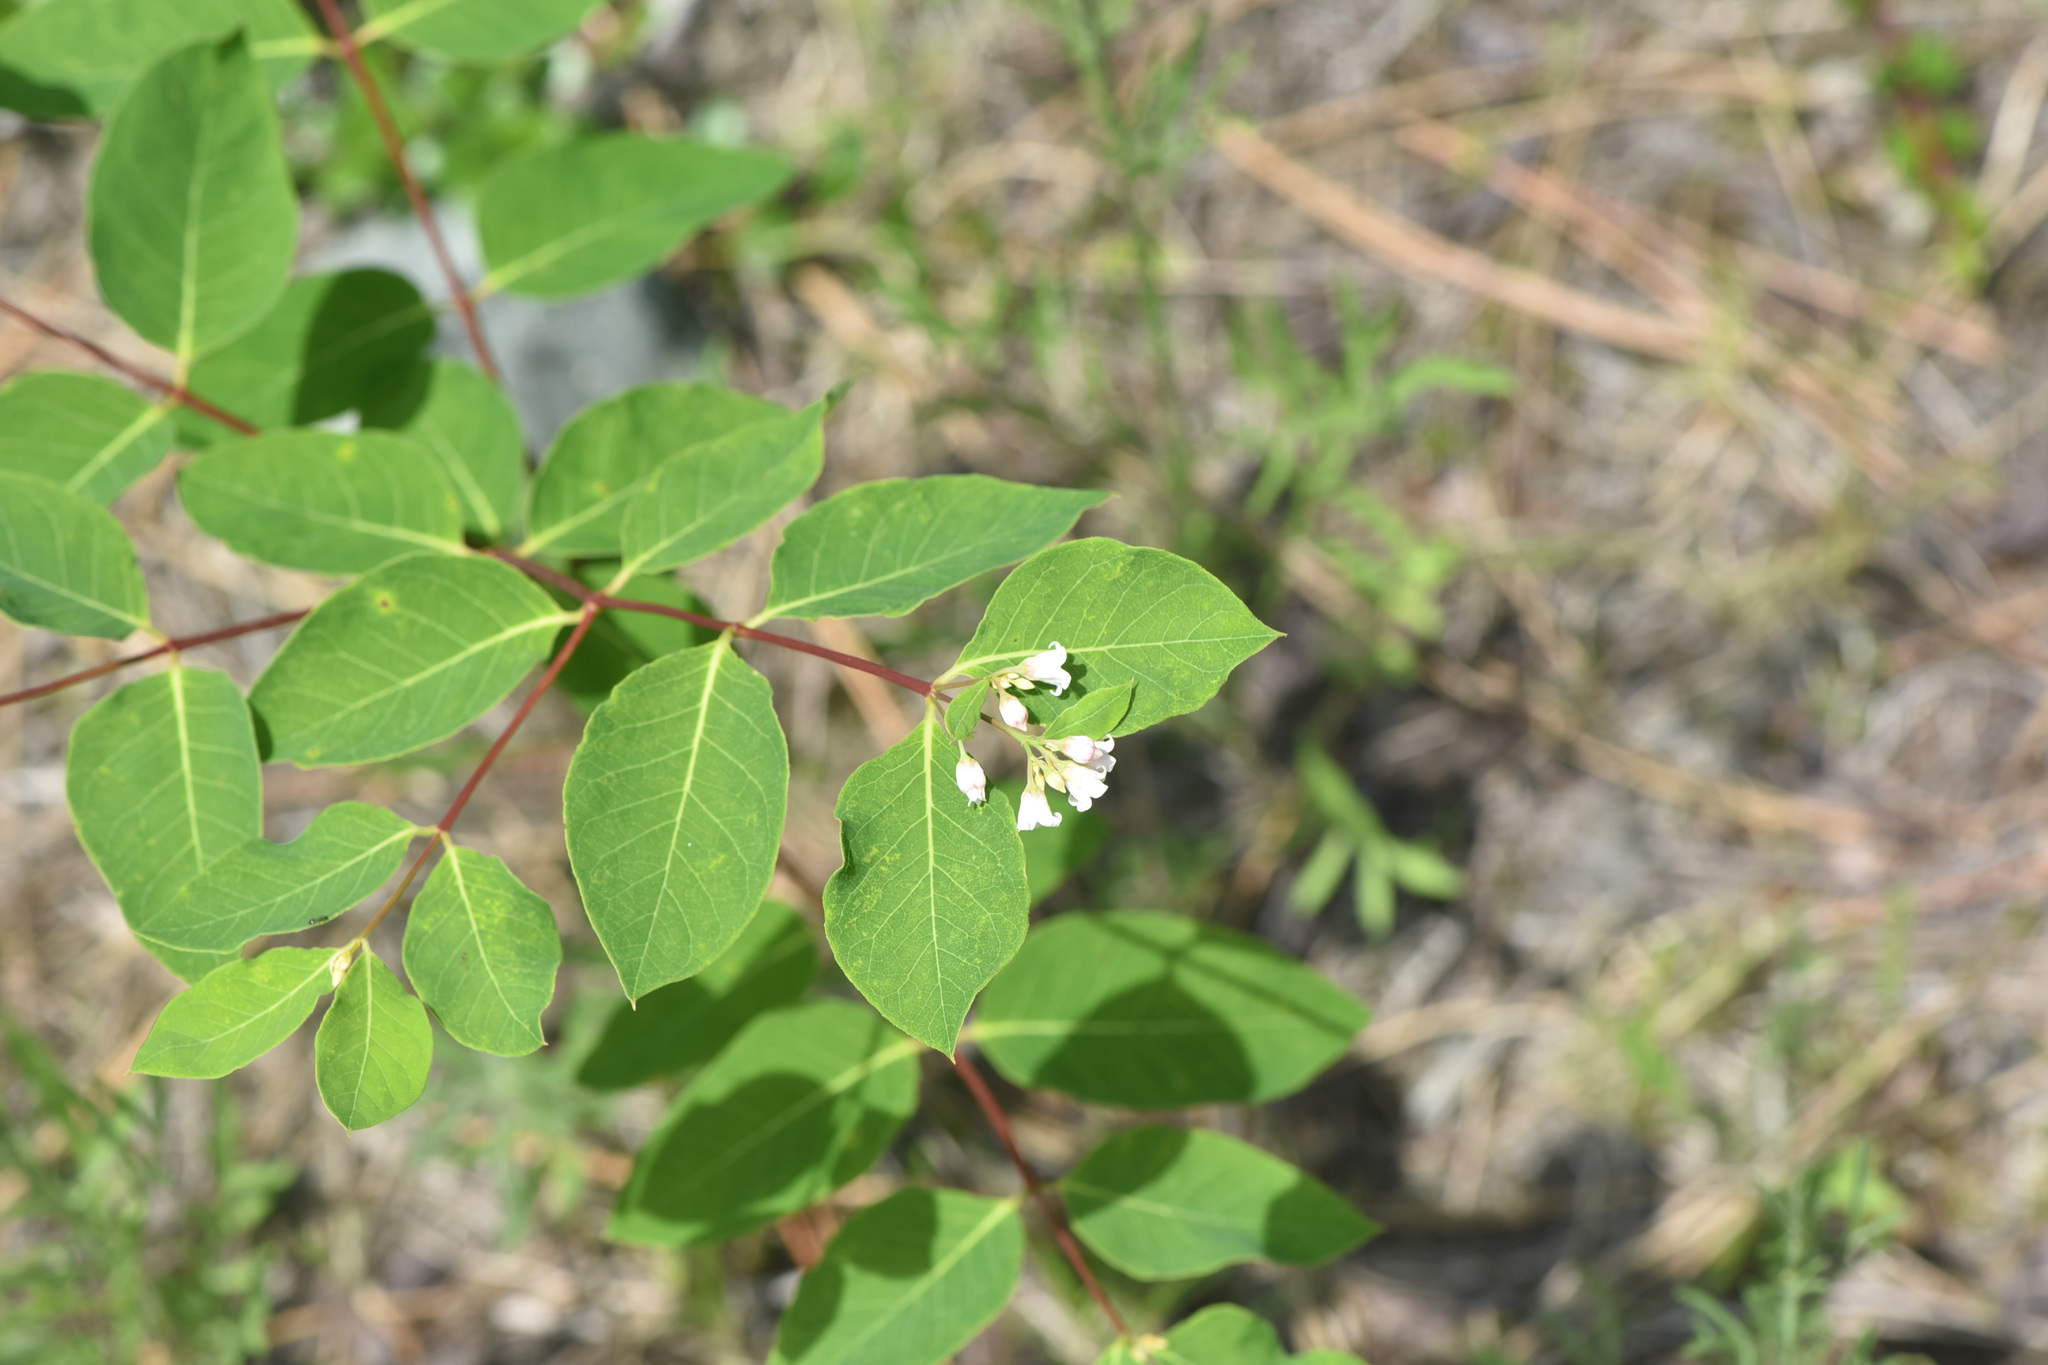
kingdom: Plantae
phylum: Tracheophyta
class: Magnoliopsida
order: Gentianales
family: Apocynaceae
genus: Apocynum
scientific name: Apocynum androsaemifolium
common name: Spreading dogbane
